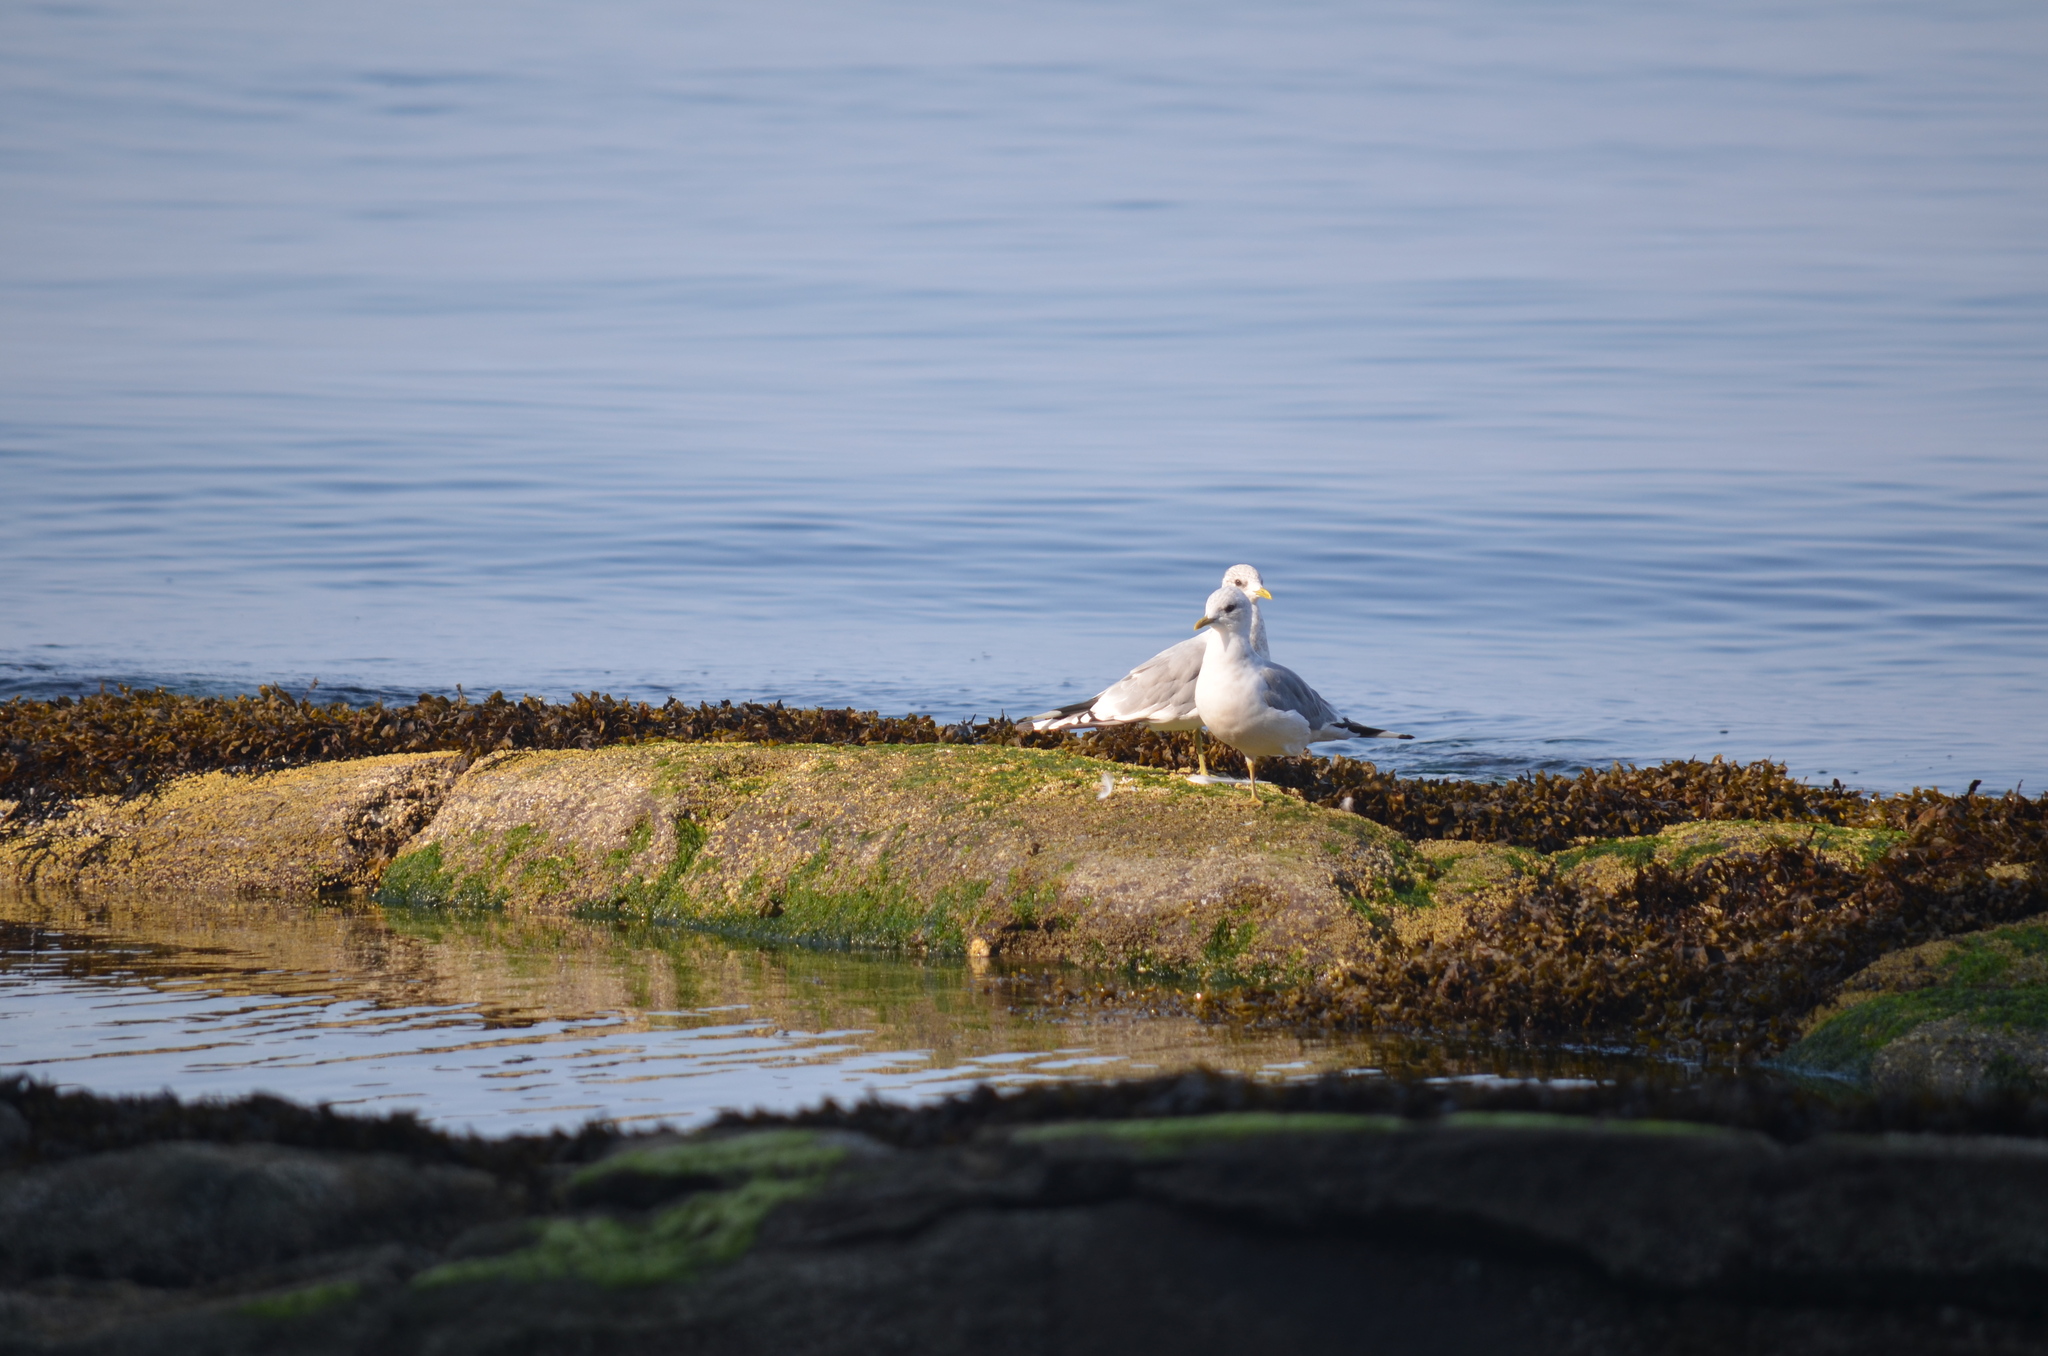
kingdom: Animalia
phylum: Chordata
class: Aves
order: Charadriiformes
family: Laridae
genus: Larus
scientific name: Larus brachyrhynchus
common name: Short-billed gull
